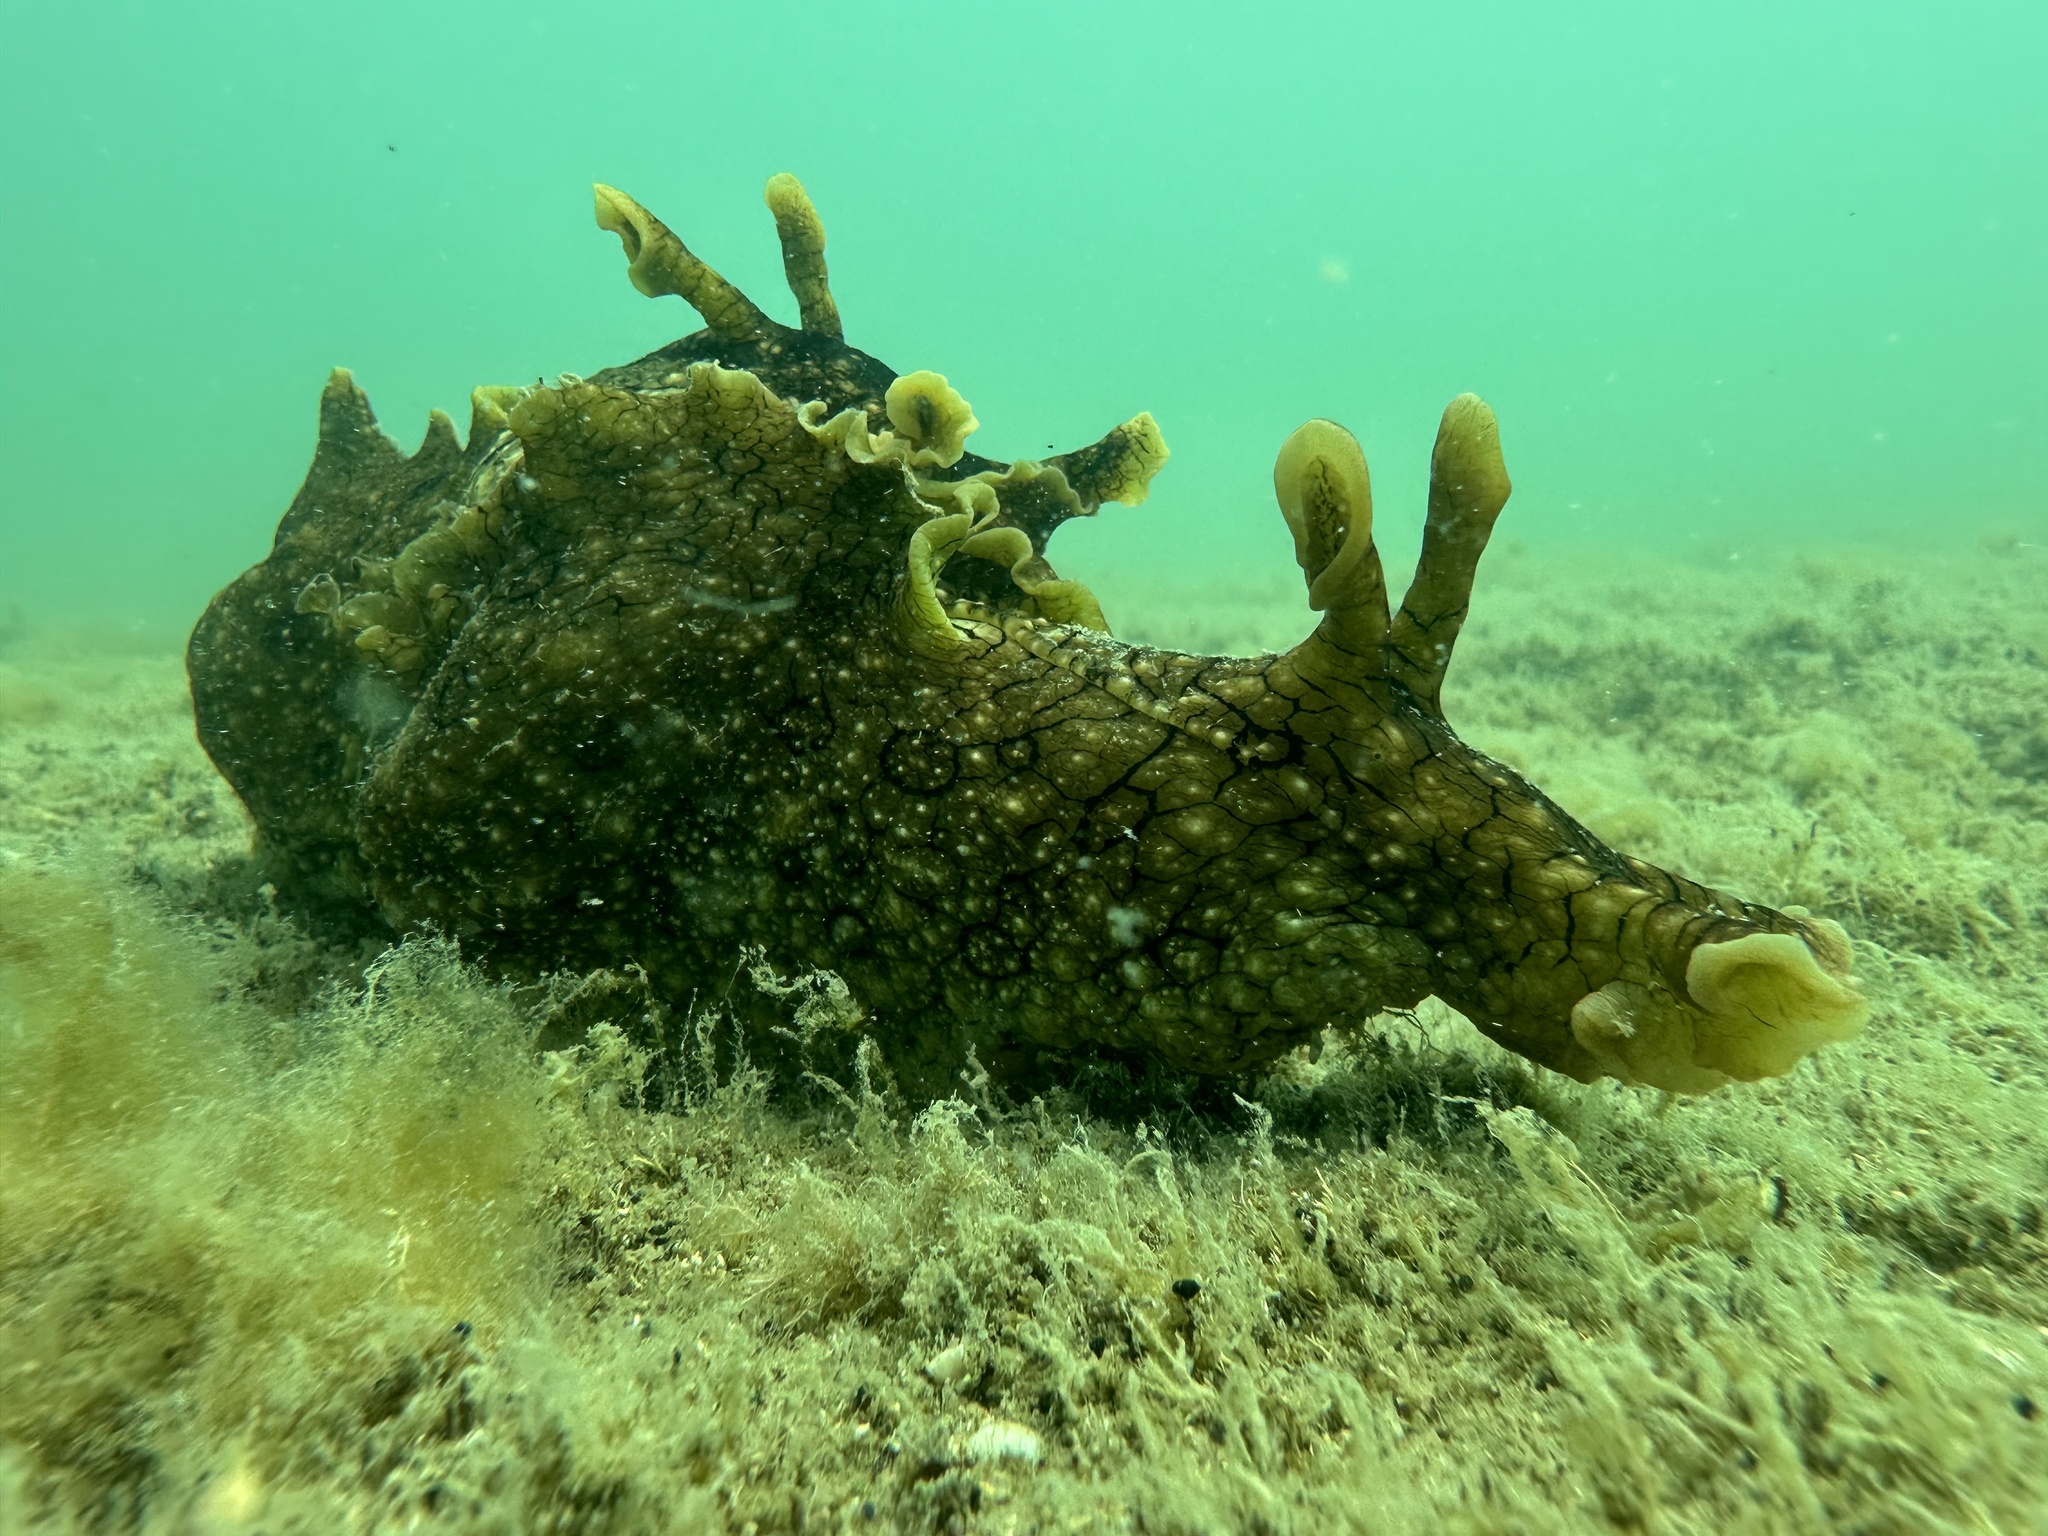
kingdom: Animalia
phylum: Mollusca
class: Gastropoda
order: Aplysiida
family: Aplysiidae
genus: Aplysia
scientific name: Aplysia argus
